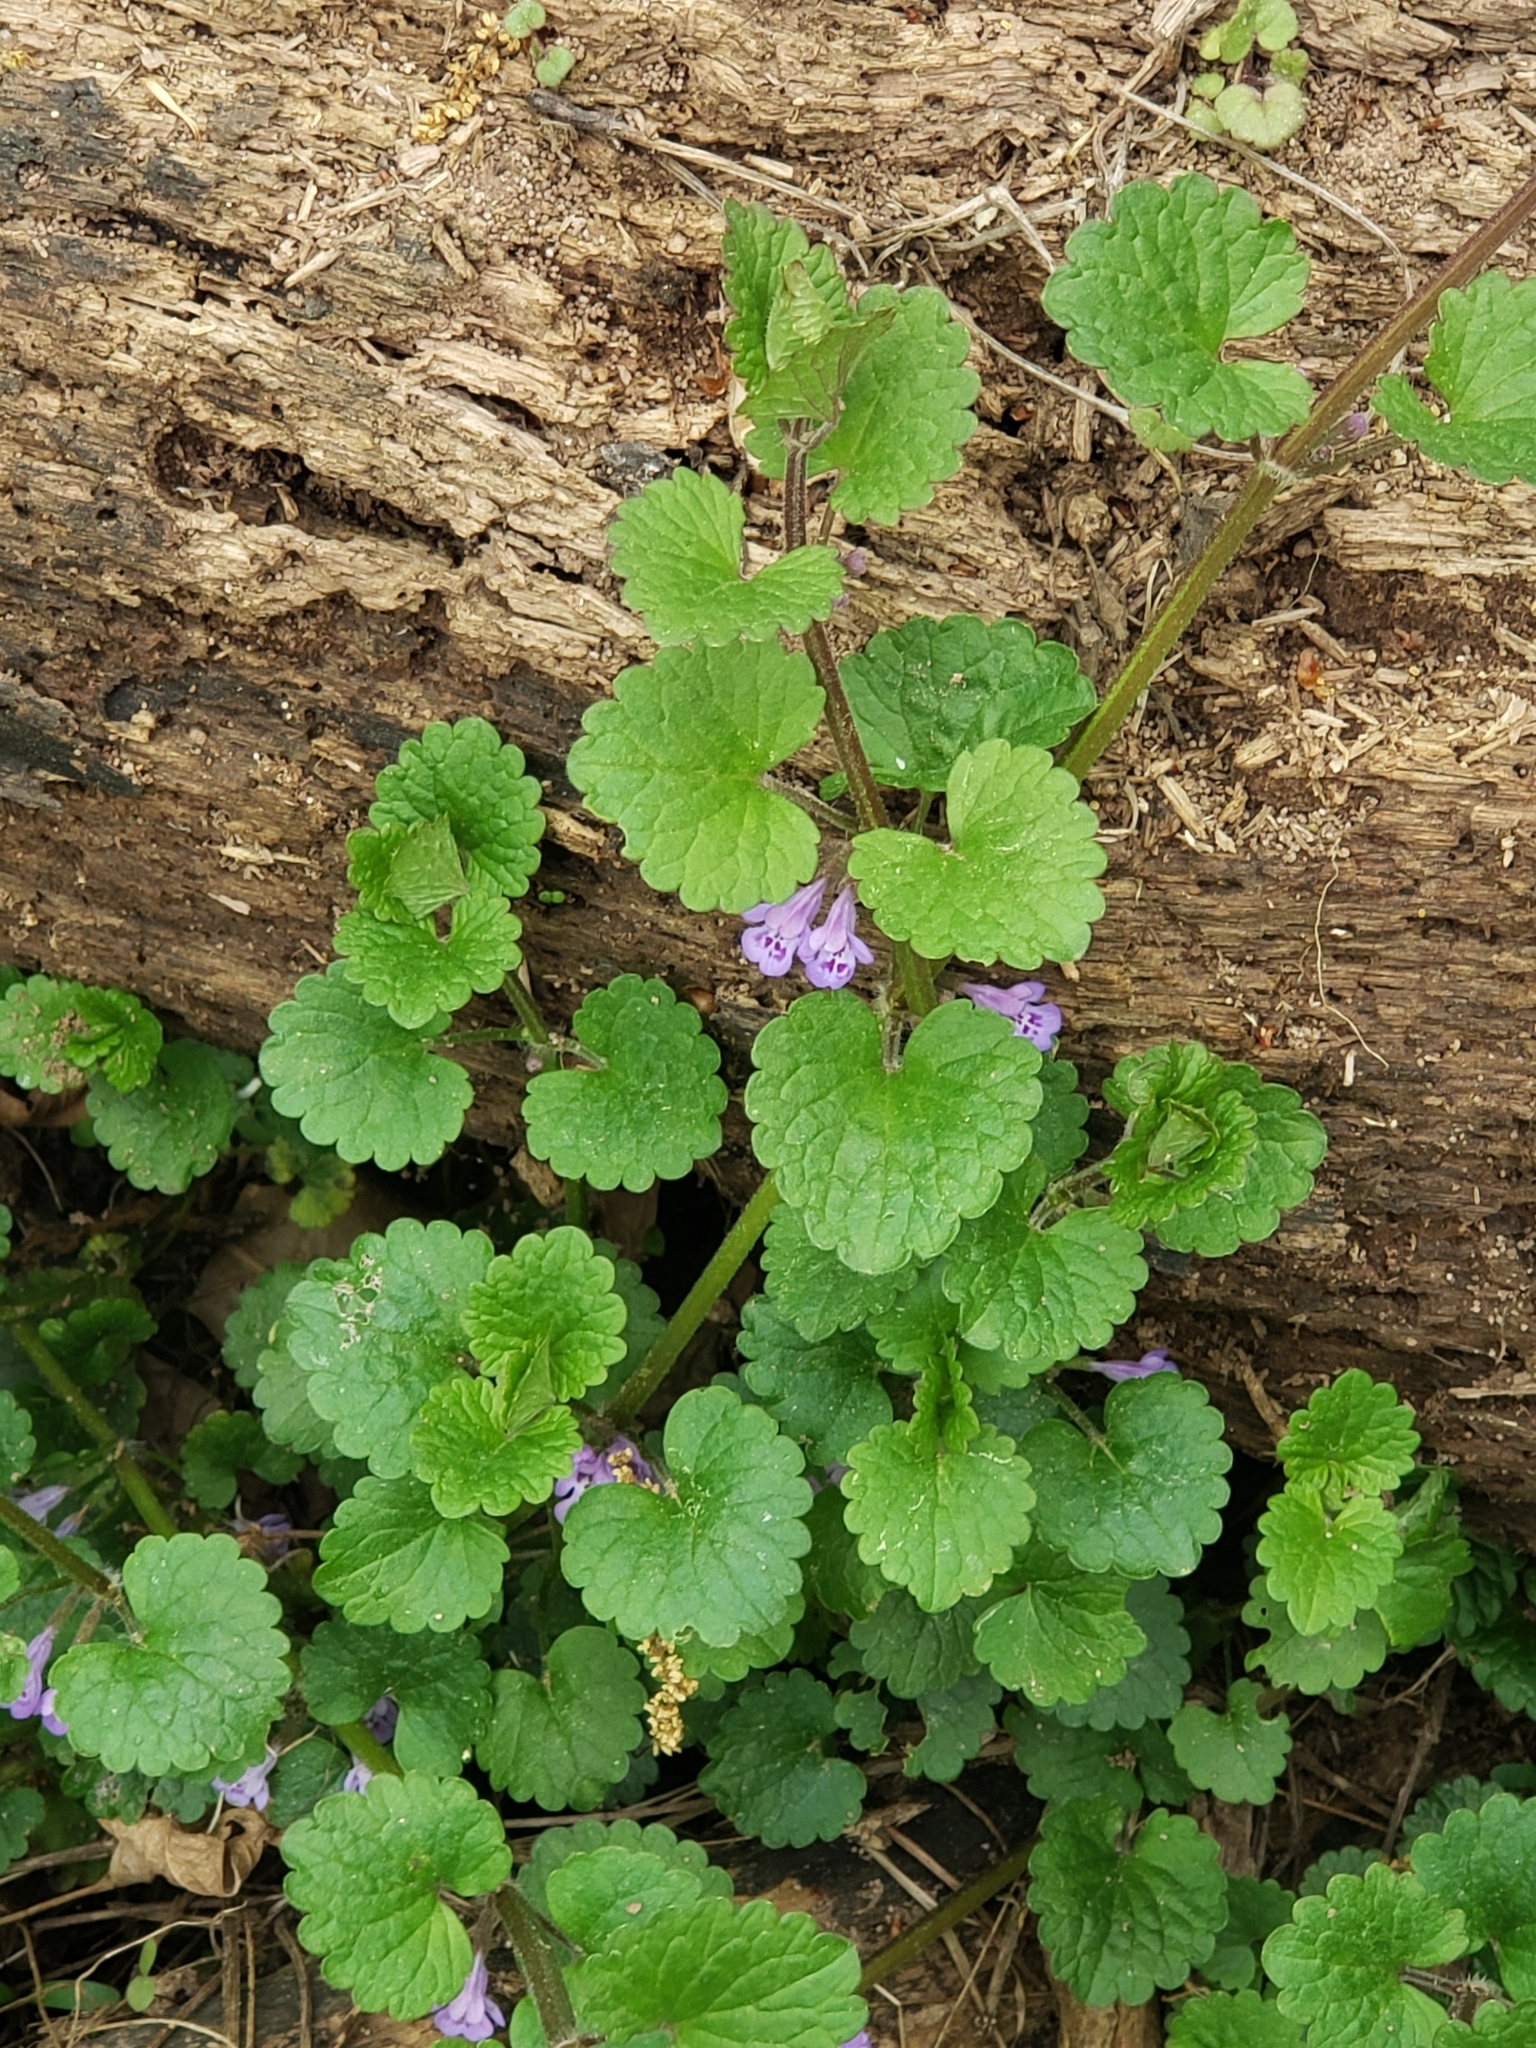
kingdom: Plantae
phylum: Tracheophyta
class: Magnoliopsida
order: Lamiales
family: Lamiaceae
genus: Glechoma
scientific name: Glechoma hederacea
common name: Ground ivy
